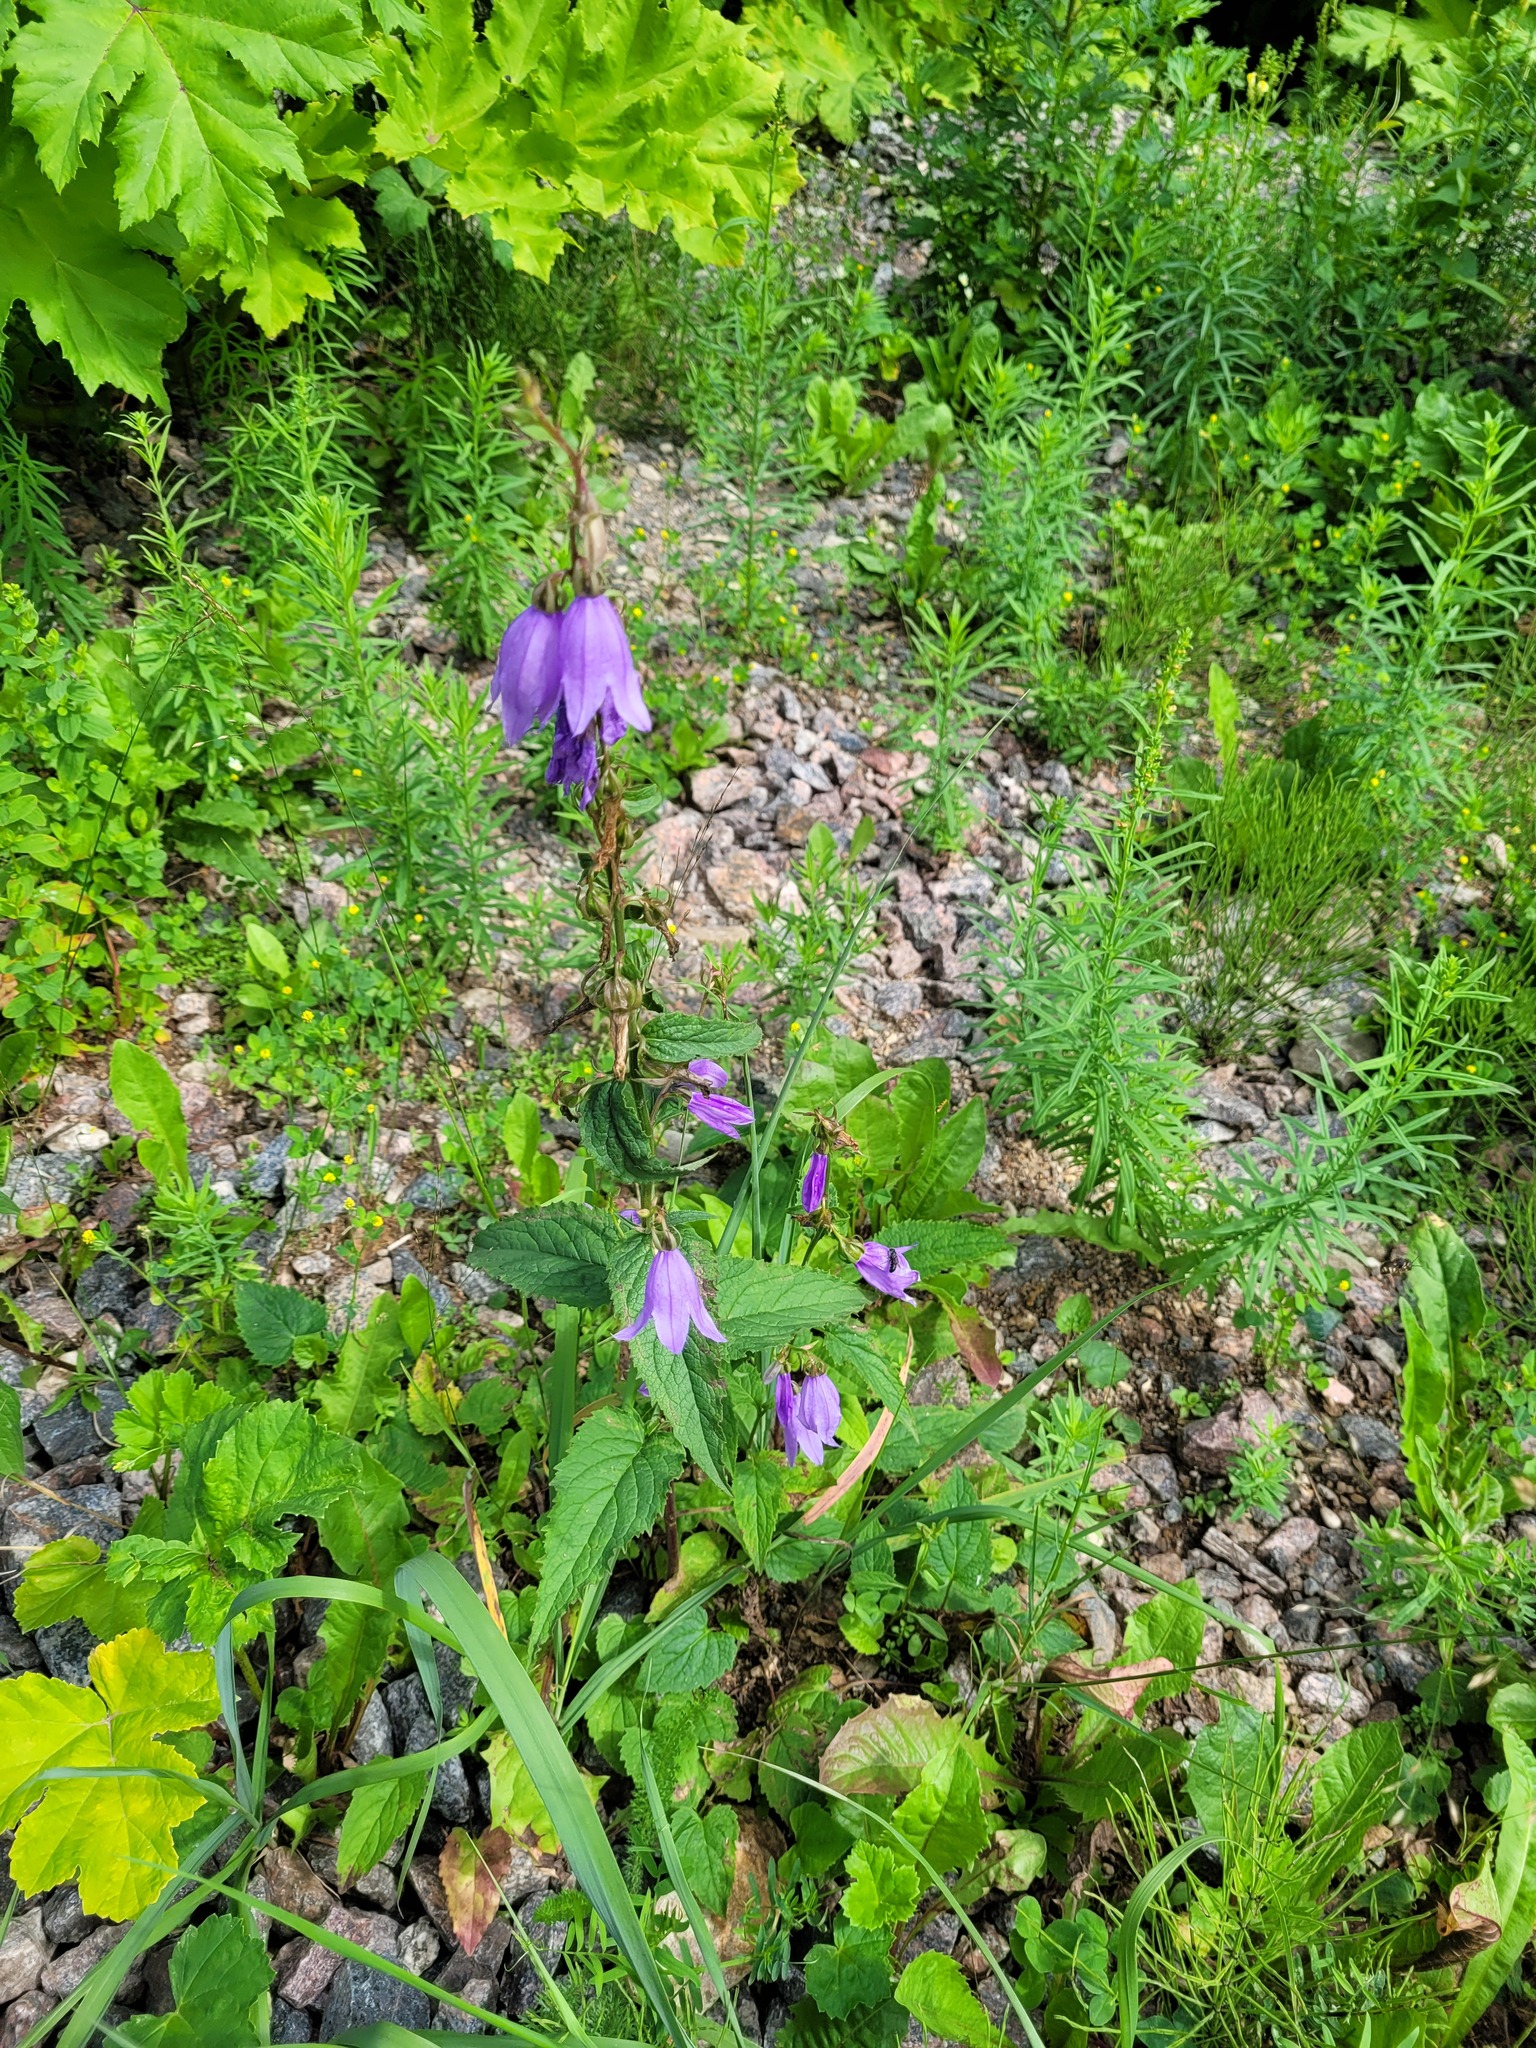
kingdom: Plantae
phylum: Tracheophyta
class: Magnoliopsida
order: Asterales
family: Campanulaceae
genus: Campanula
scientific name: Campanula rapunculoides
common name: Creeping bellflower
